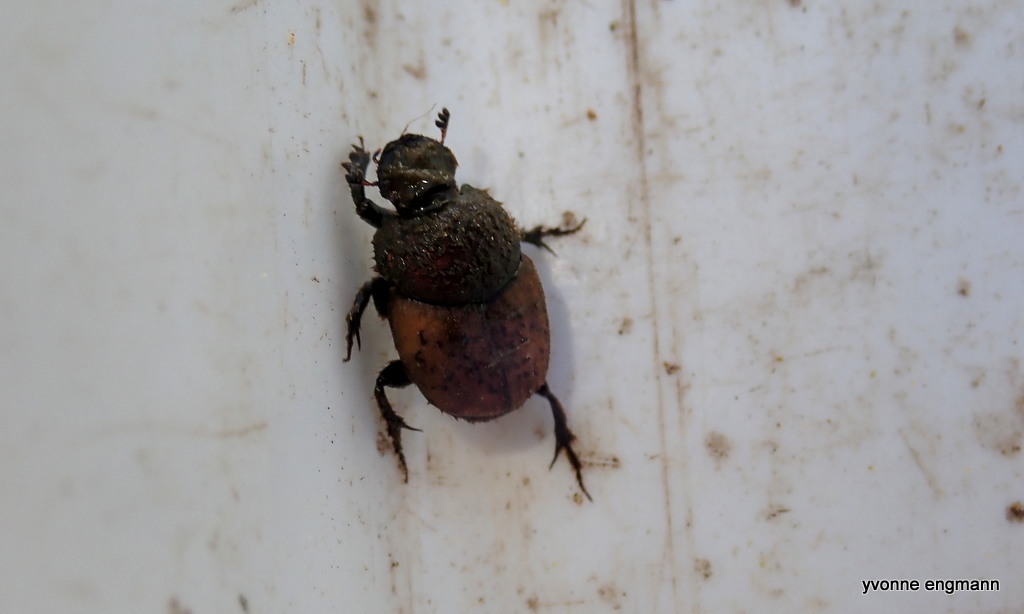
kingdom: Animalia
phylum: Arthropoda
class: Insecta
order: Coleoptera
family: Scarabaeidae
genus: Onthophagus
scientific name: Onthophagus coenobita
